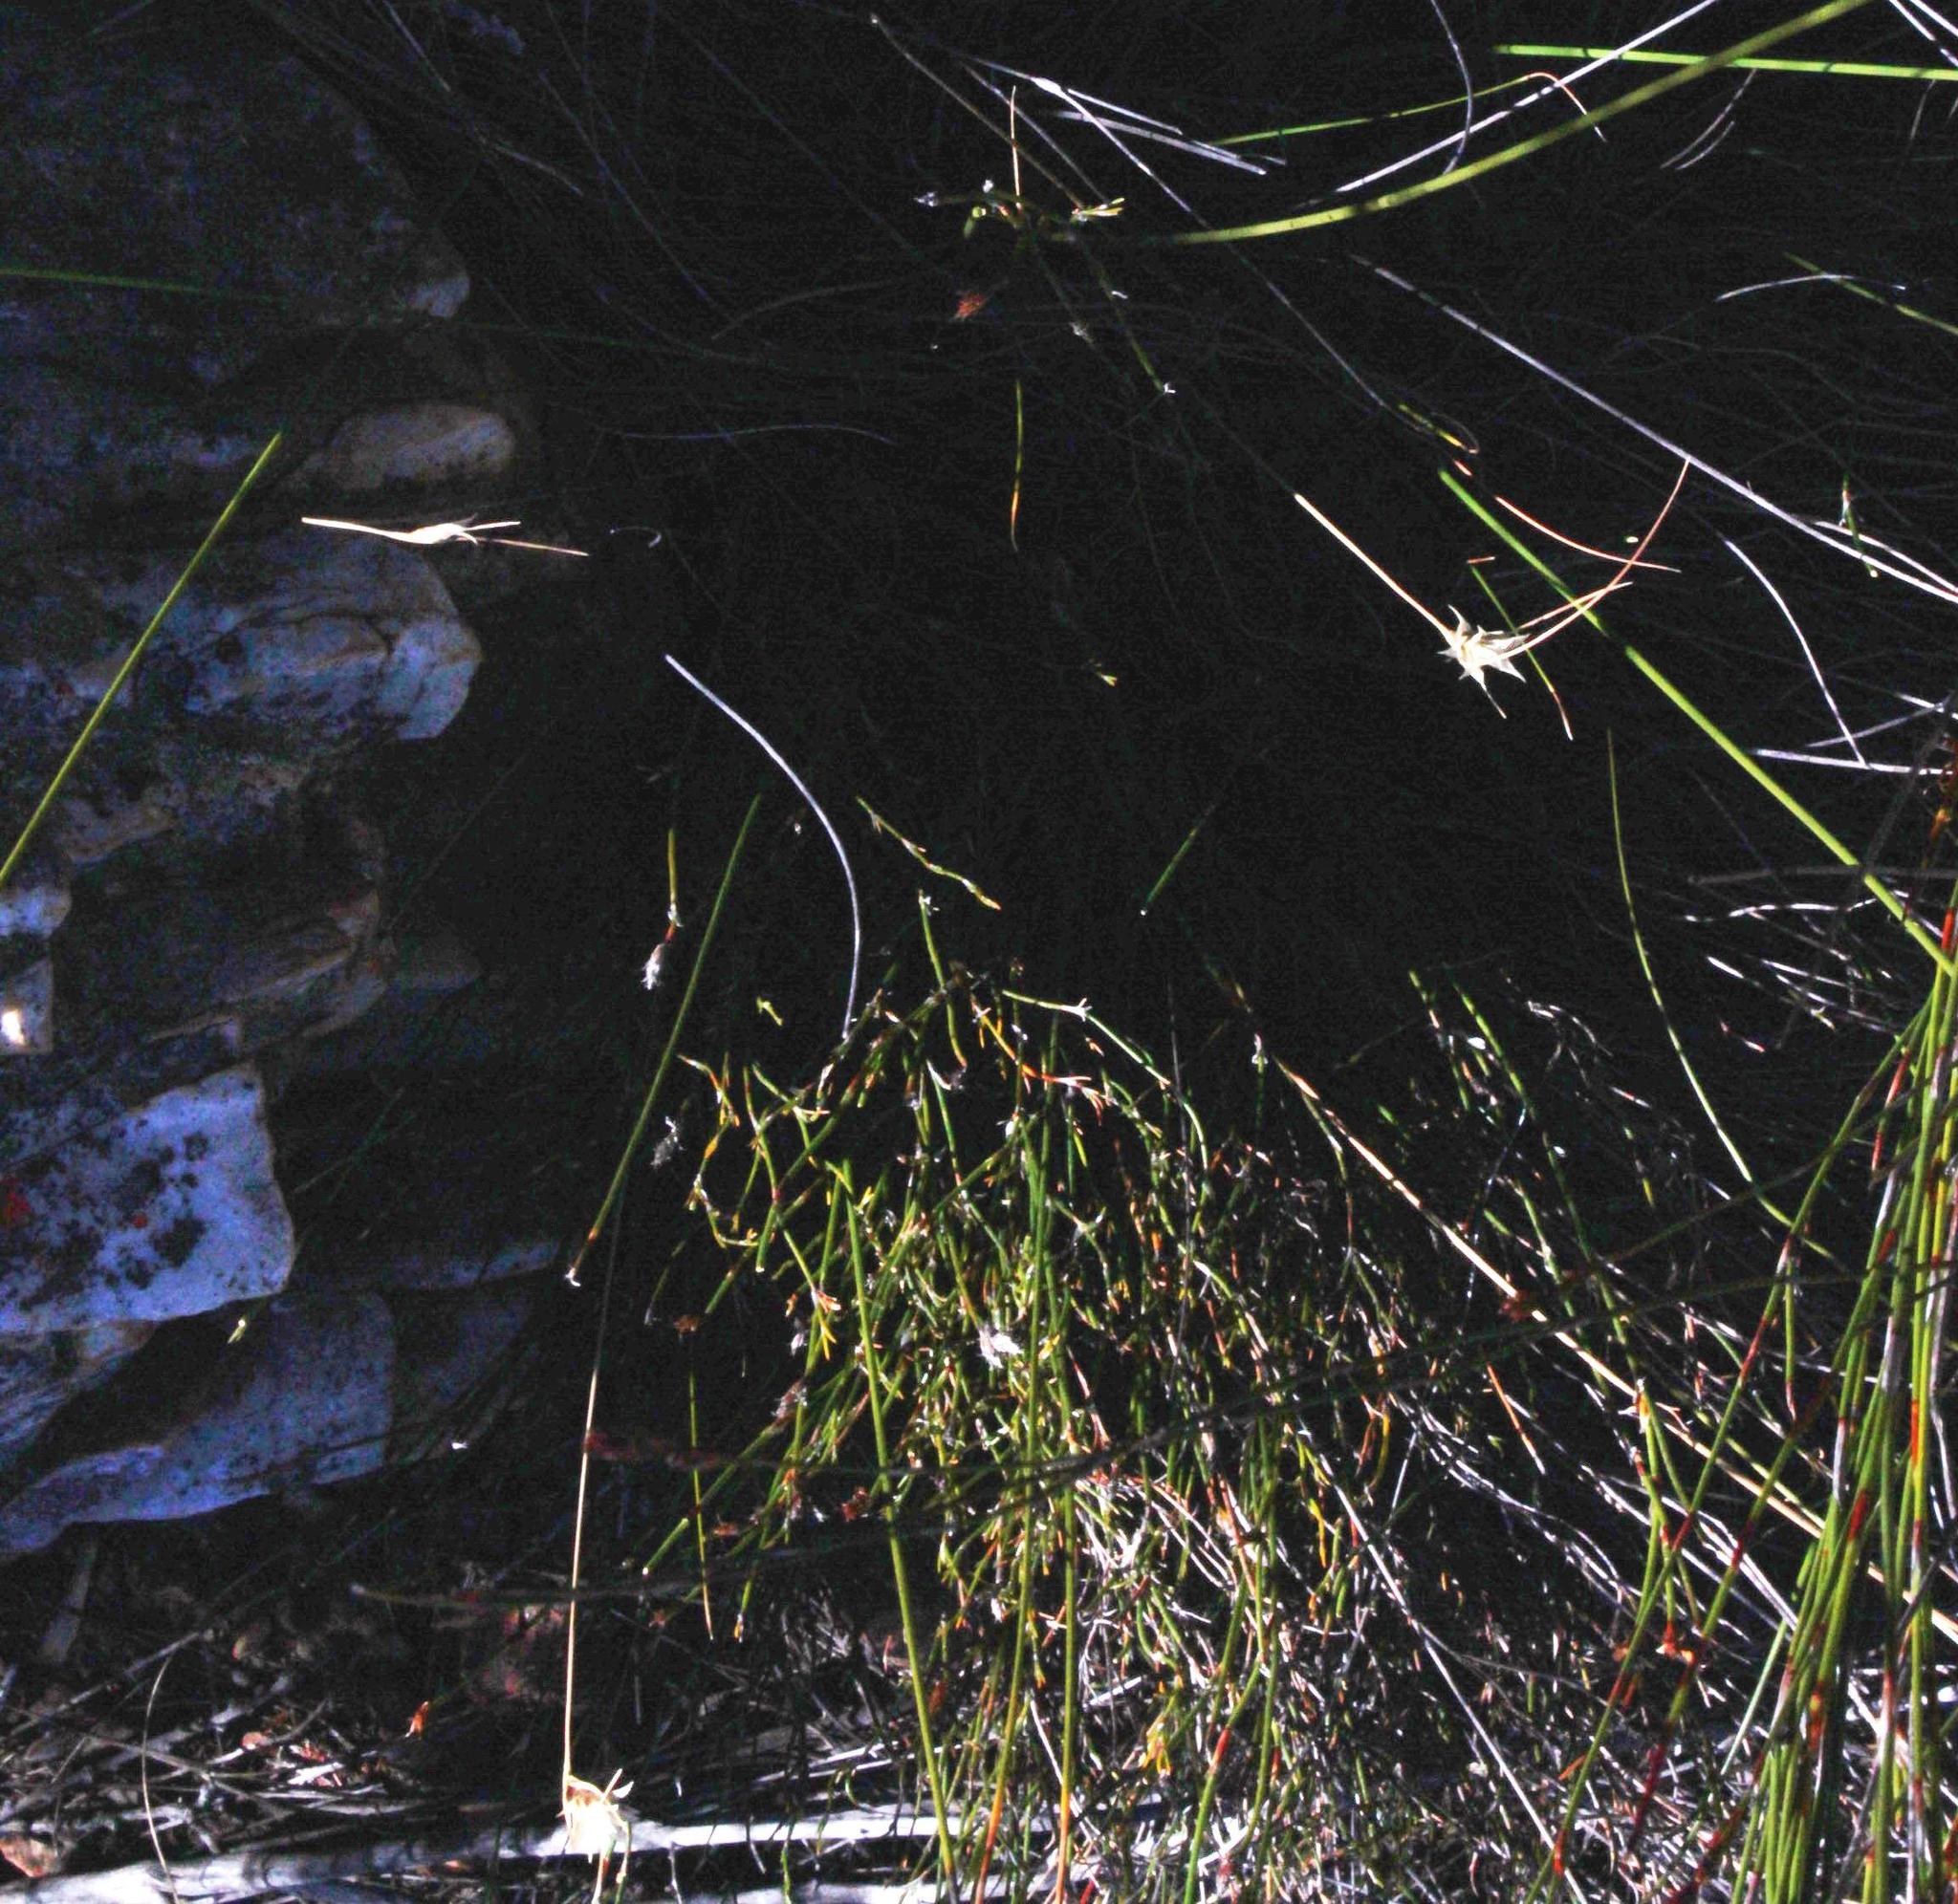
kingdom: Plantae
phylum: Tracheophyta
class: Liliopsida
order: Poales
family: Cyperaceae
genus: Ficinia
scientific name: Ficinia nigrescens
